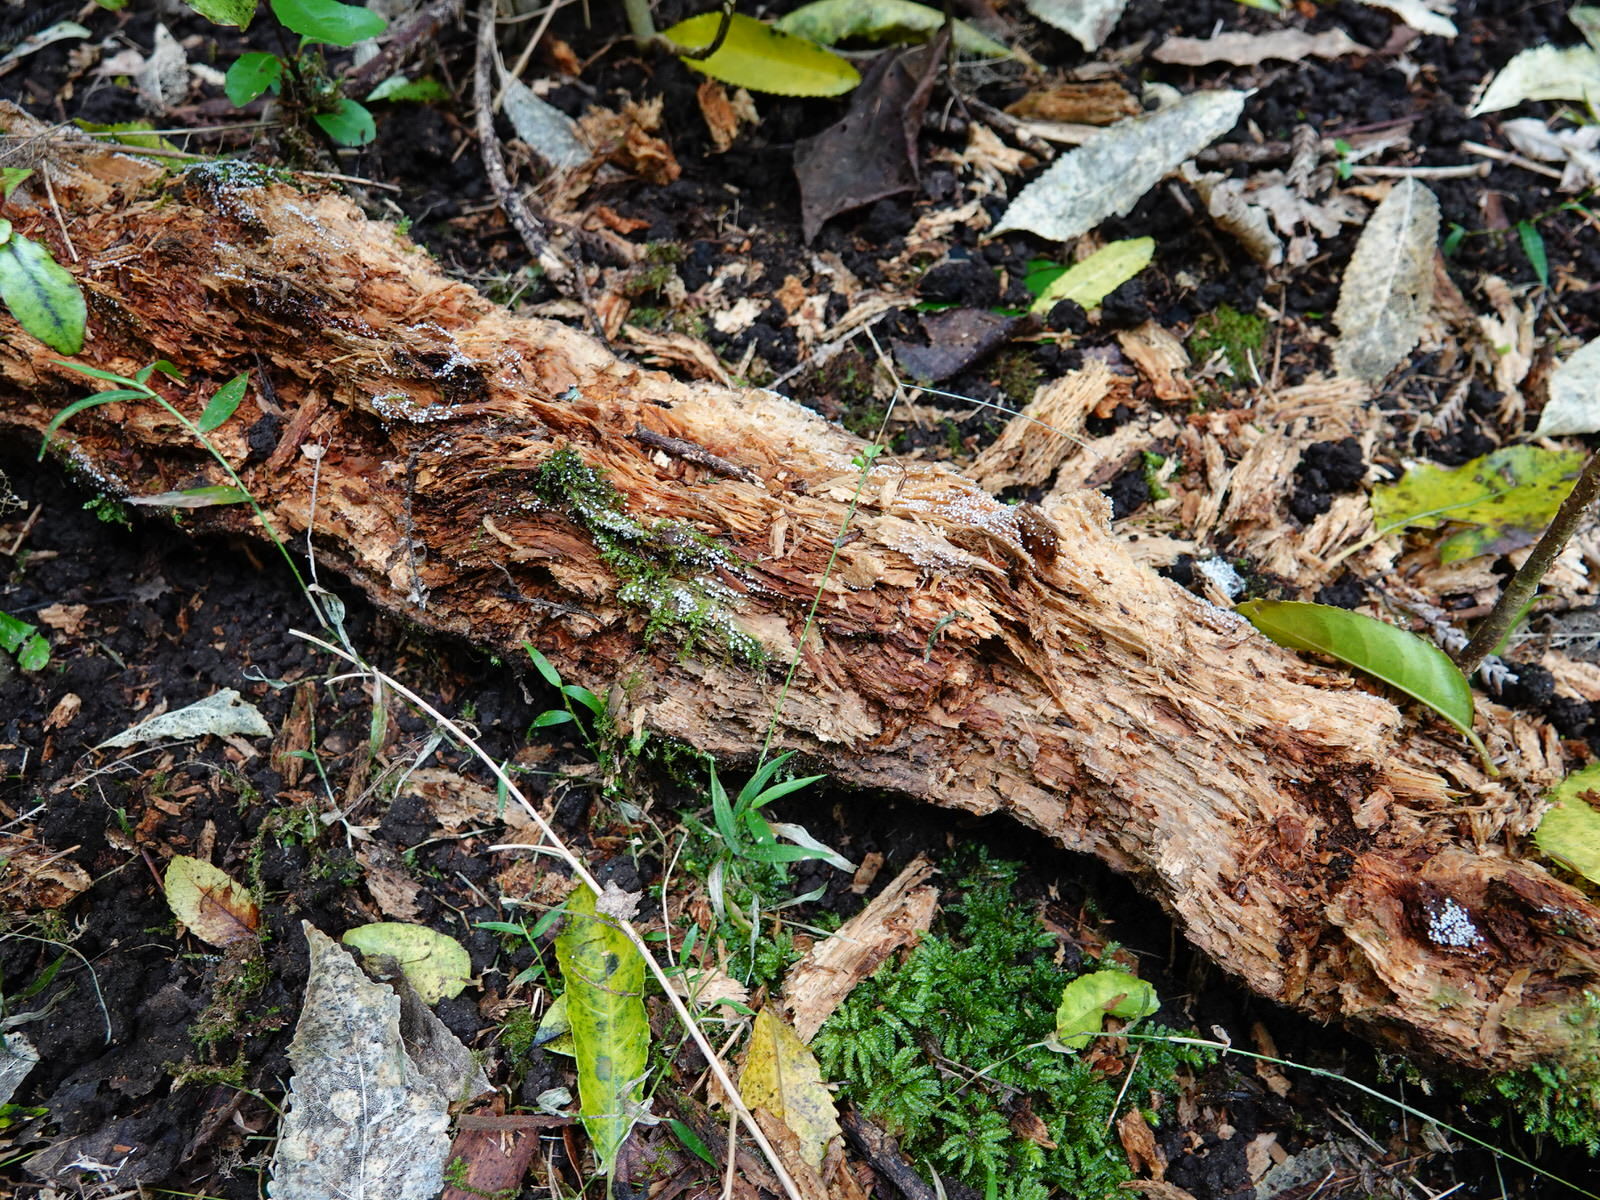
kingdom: Fungi
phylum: Basidiomycota
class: Atractiellomycetes
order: Atractiellales
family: Phleogenaceae
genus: Helicogloea
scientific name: Helicogloea compressa
